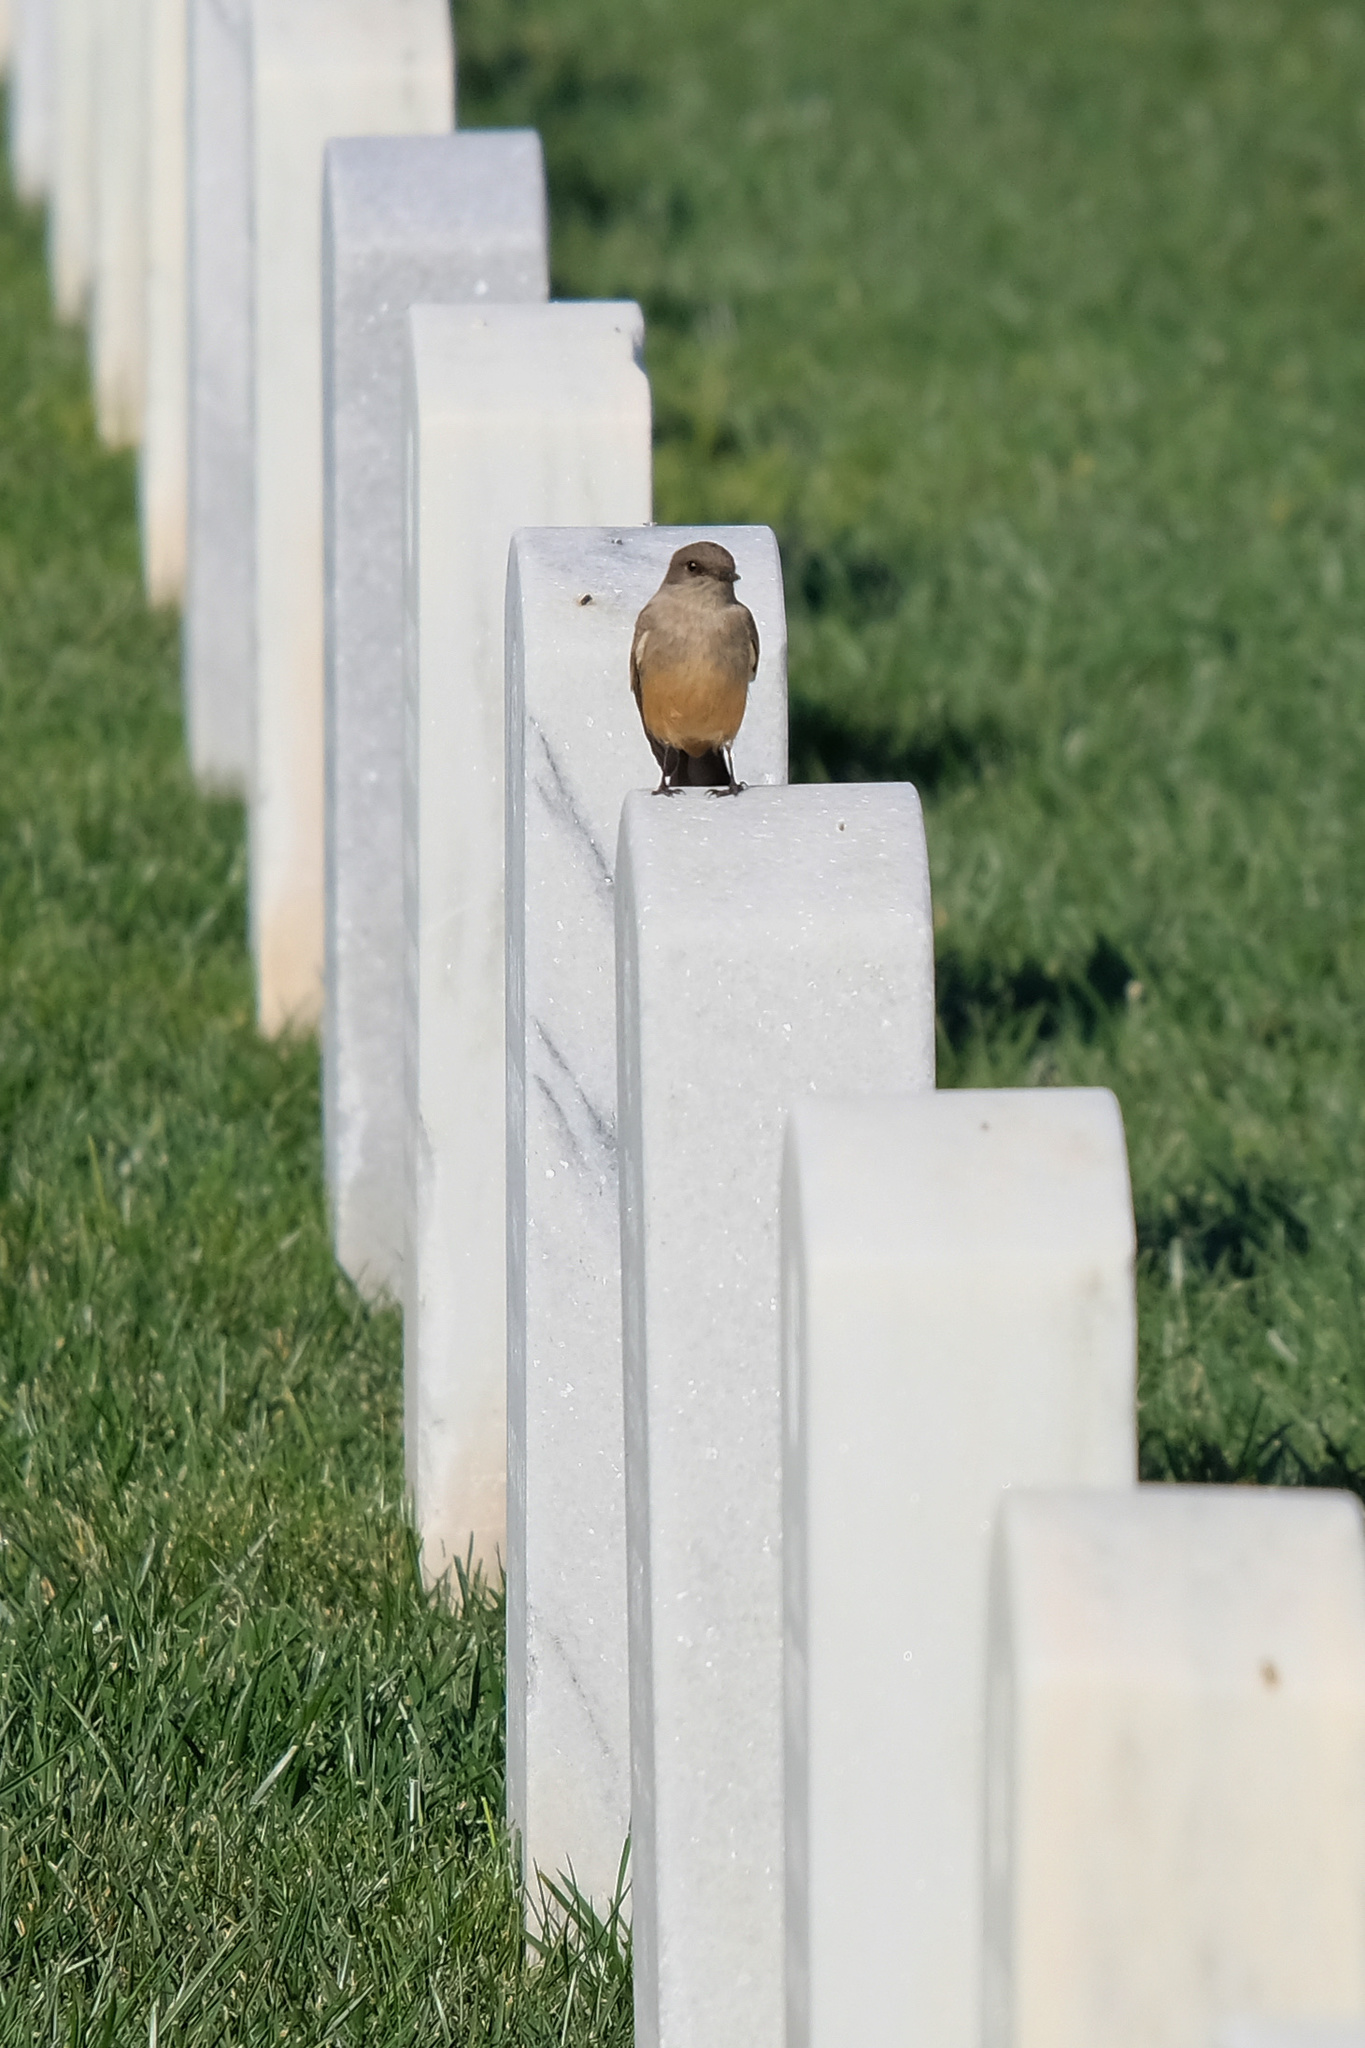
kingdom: Animalia
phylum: Chordata
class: Aves
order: Passeriformes
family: Tyrannidae
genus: Sayornis
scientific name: Sayornis saya
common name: Say's phoebe
